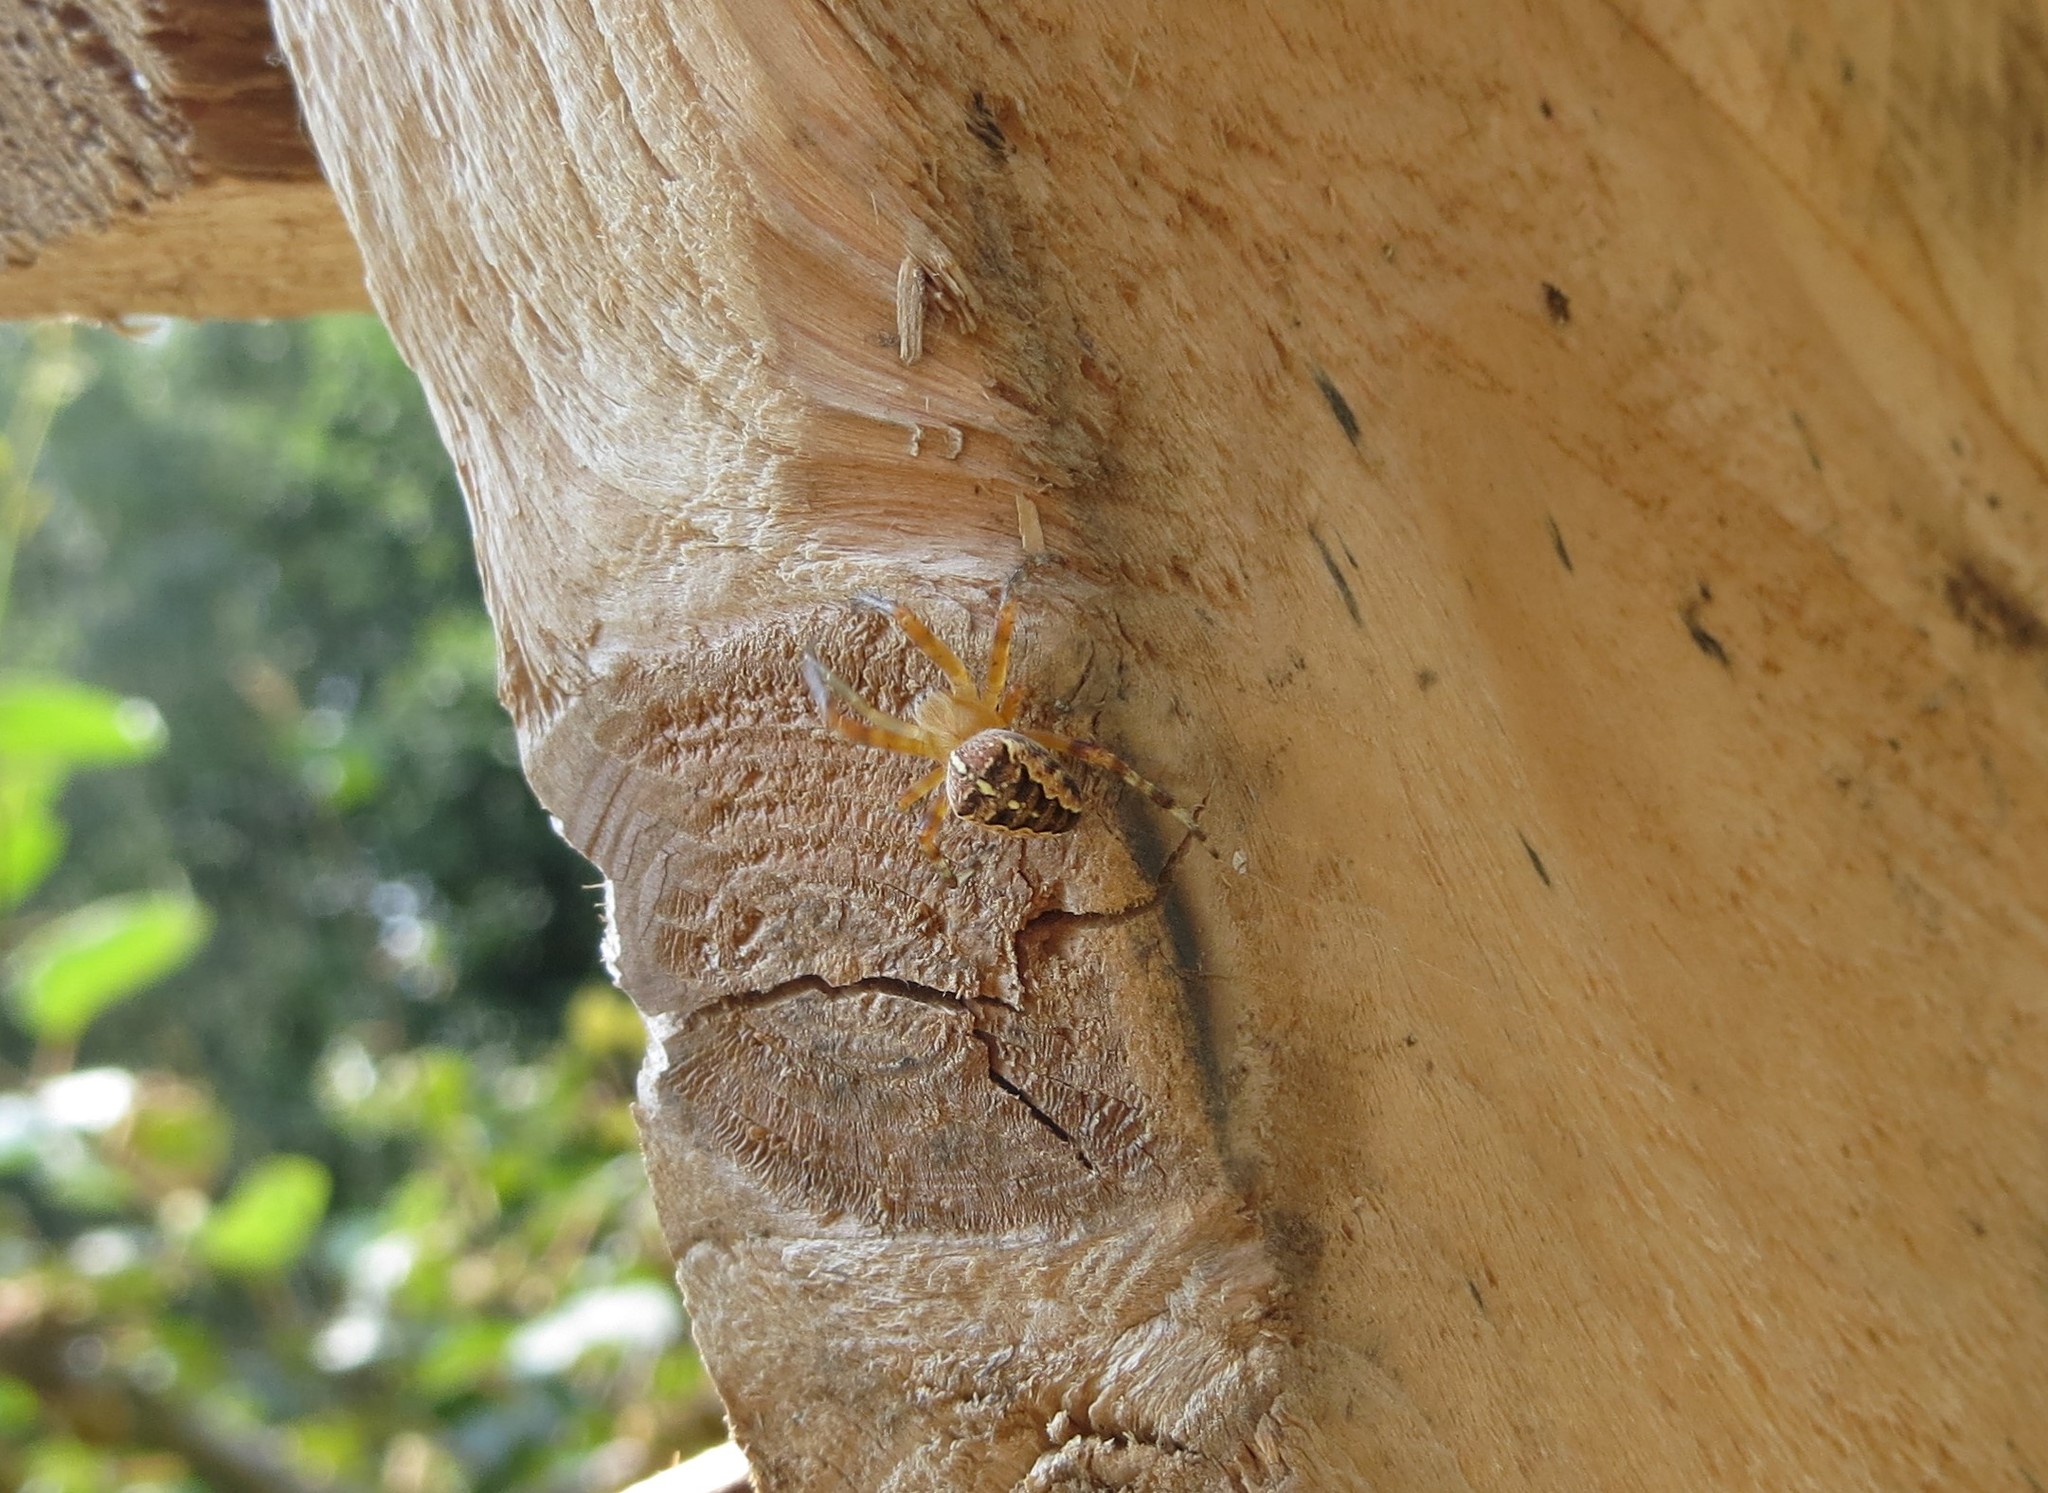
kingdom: Animalia
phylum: Arthropoda
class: Arachnida
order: Araneae
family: Araneidae
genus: Araneus
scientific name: Araneus diadematus
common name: Cross orbweaver
